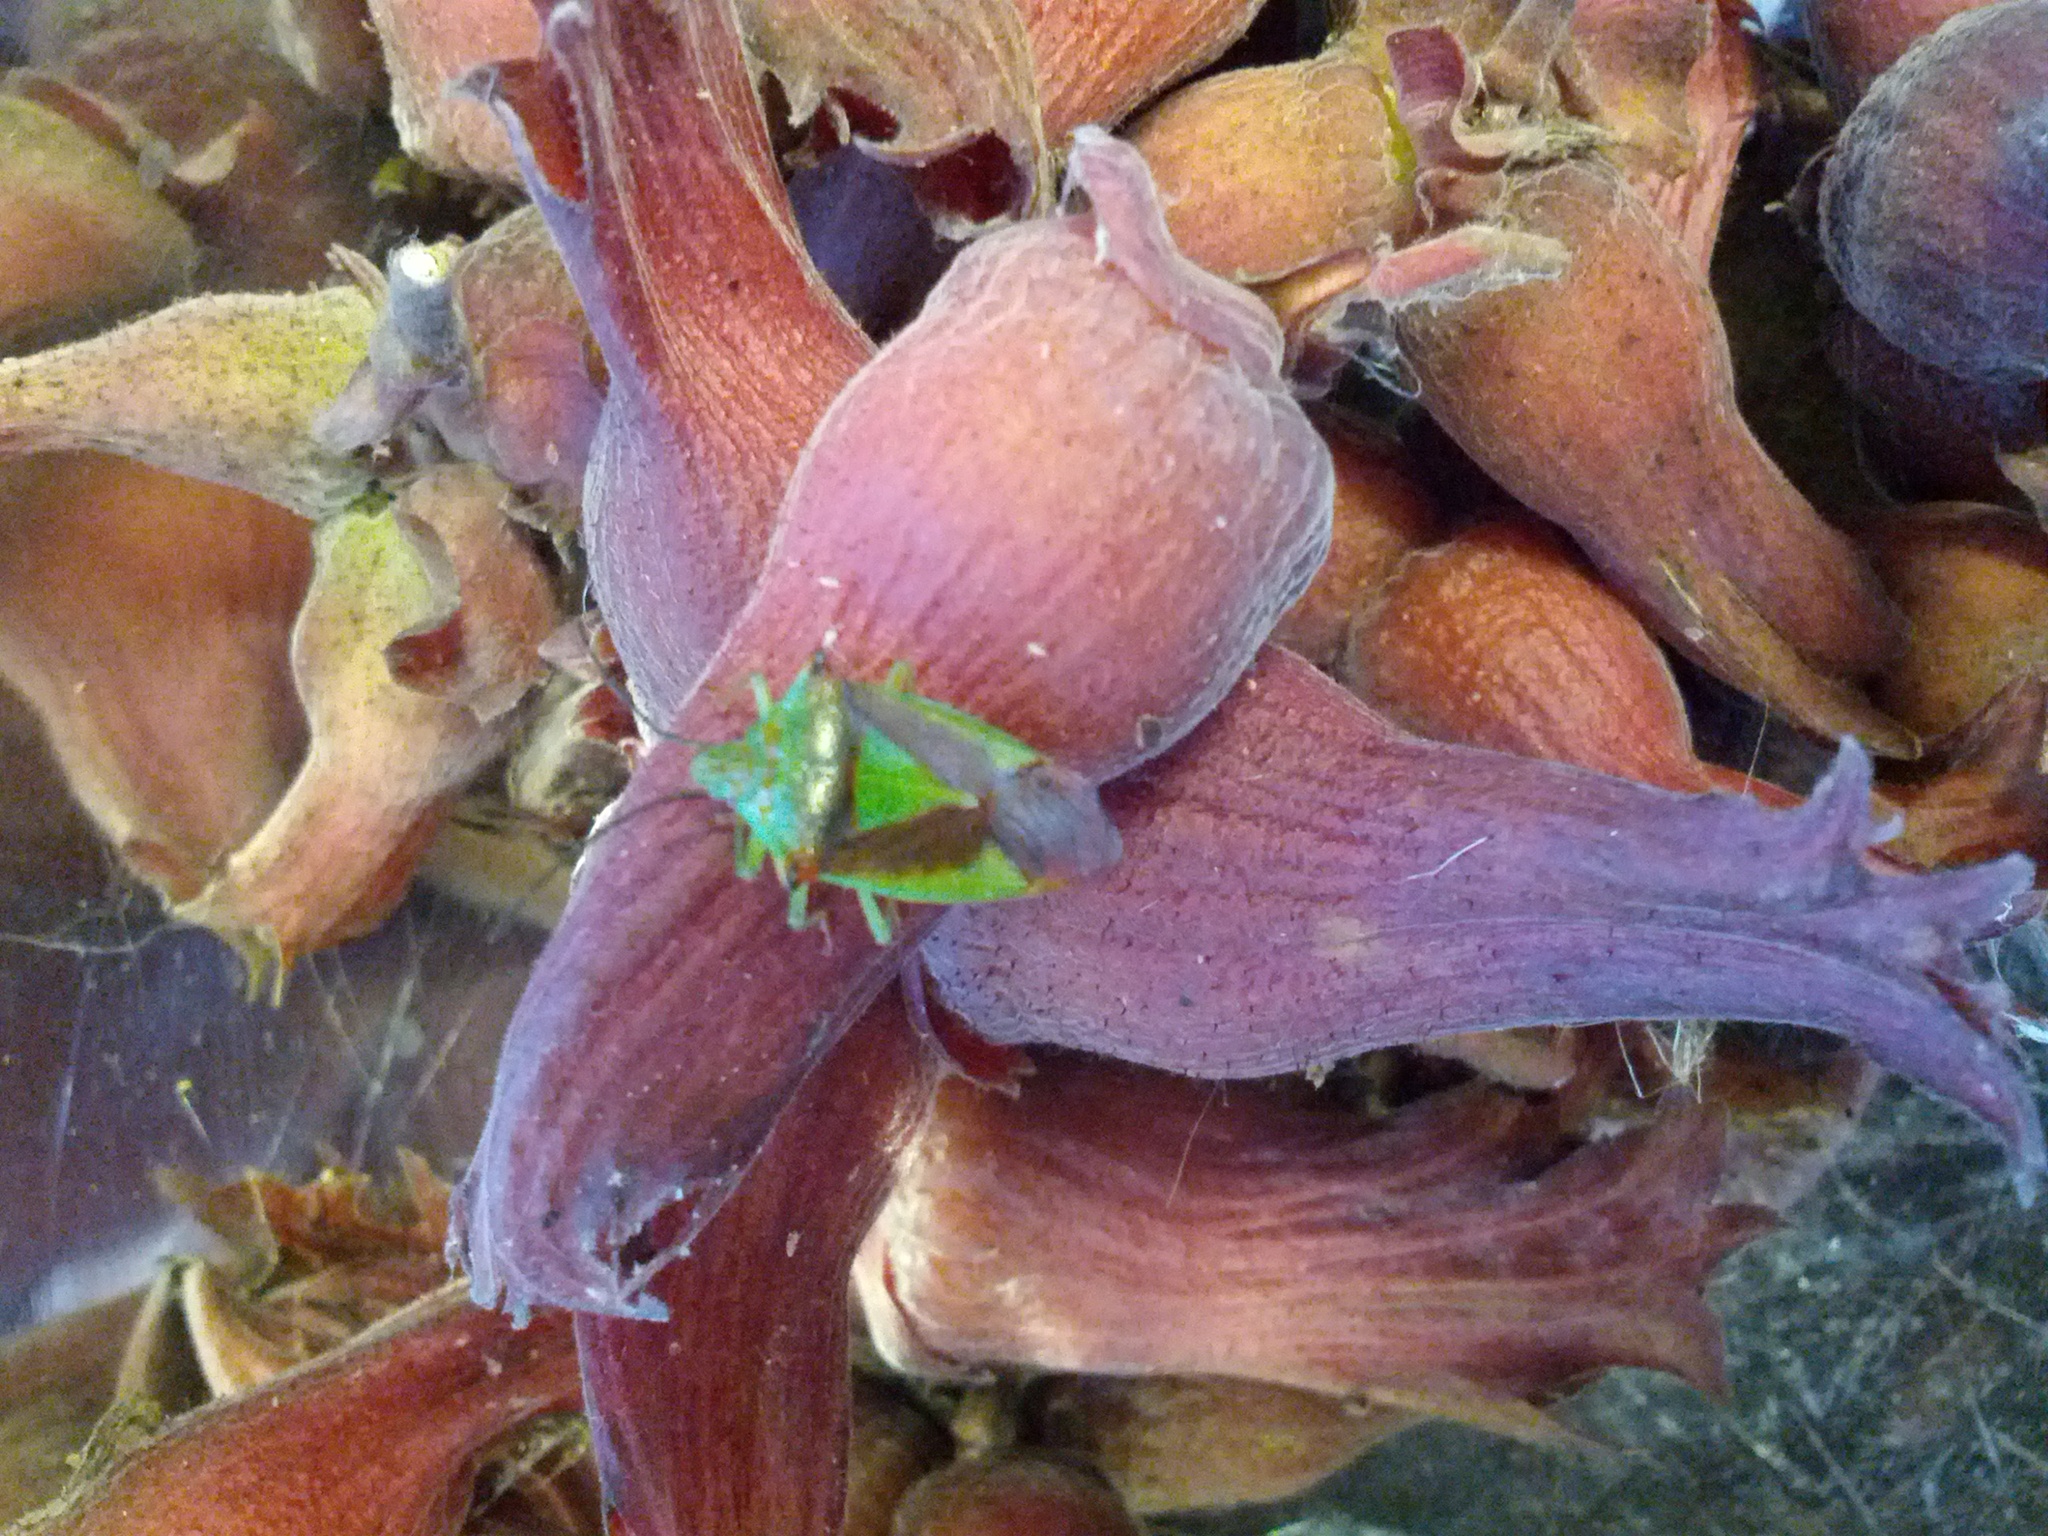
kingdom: Animalia
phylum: Arthropoda
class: Insecta
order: Hemiptera
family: Acanthosomatidae
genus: Acanthosoma
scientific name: Acanthosoma haemorrhoidale
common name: Hawthorn shieldbug
